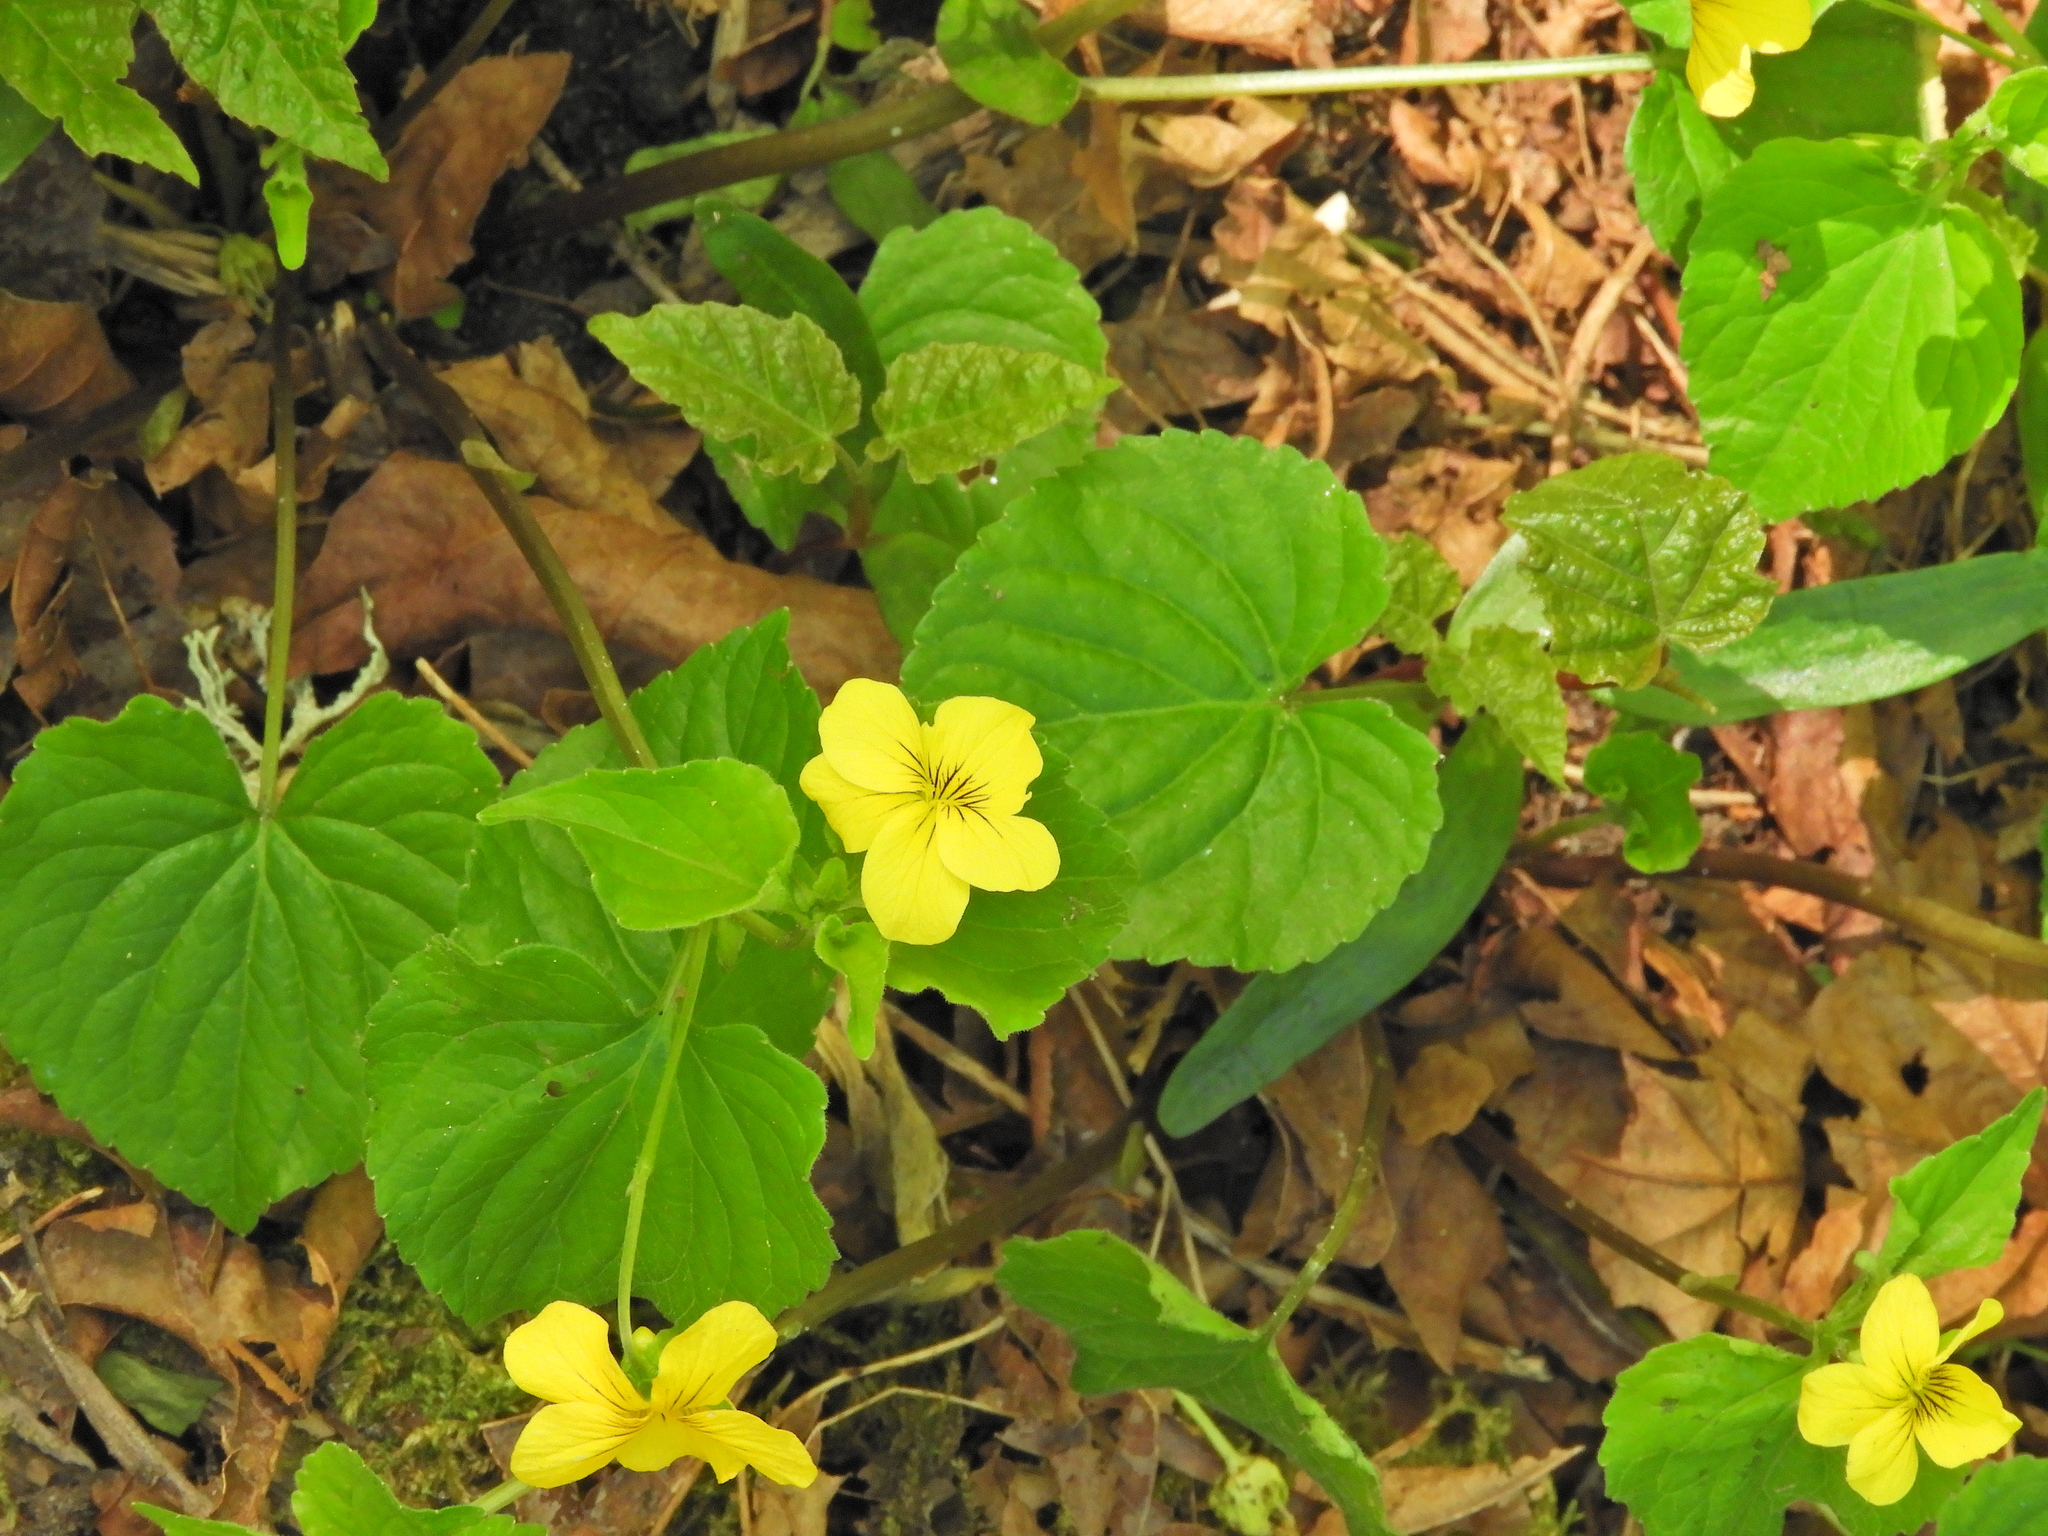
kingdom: Plantae
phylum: Tracheophyta
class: Magnoliopsida
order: Malpighiales
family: Violaceae
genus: Viola
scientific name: Viola glabella
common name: Stream violet
